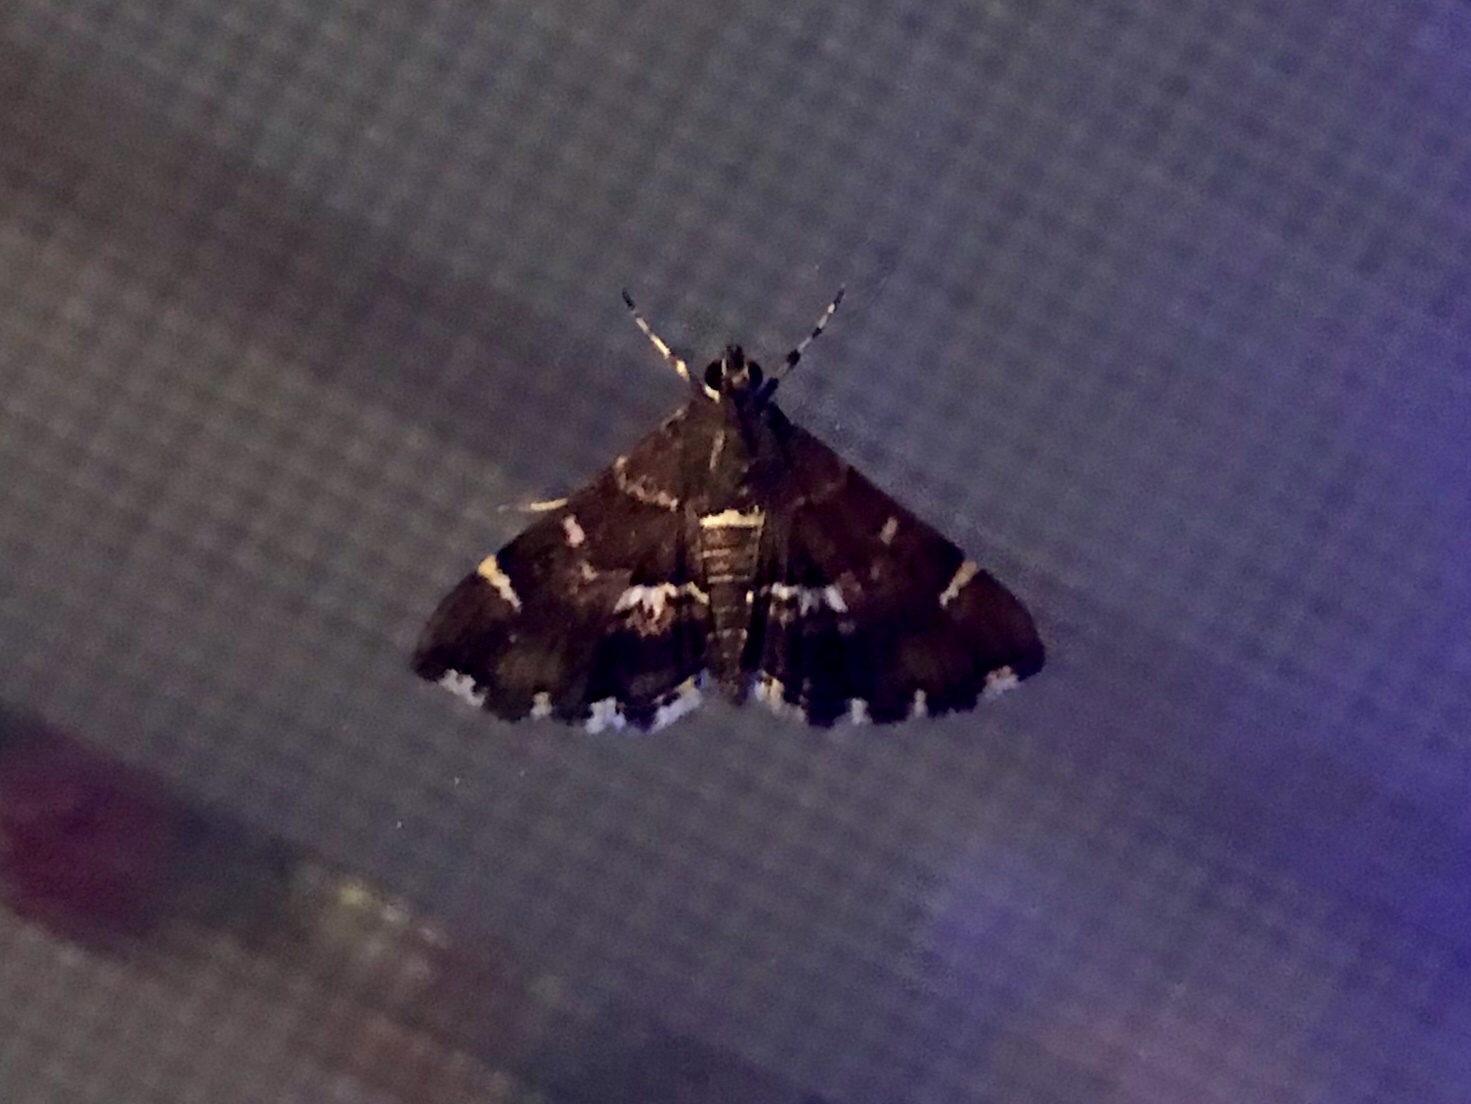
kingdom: Animalia
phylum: Arthropoda
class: Insecta
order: Lepidoptera
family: Crambidae
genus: Hymenia
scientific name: Hymenia perspectalis
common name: Spotted beet webworm
